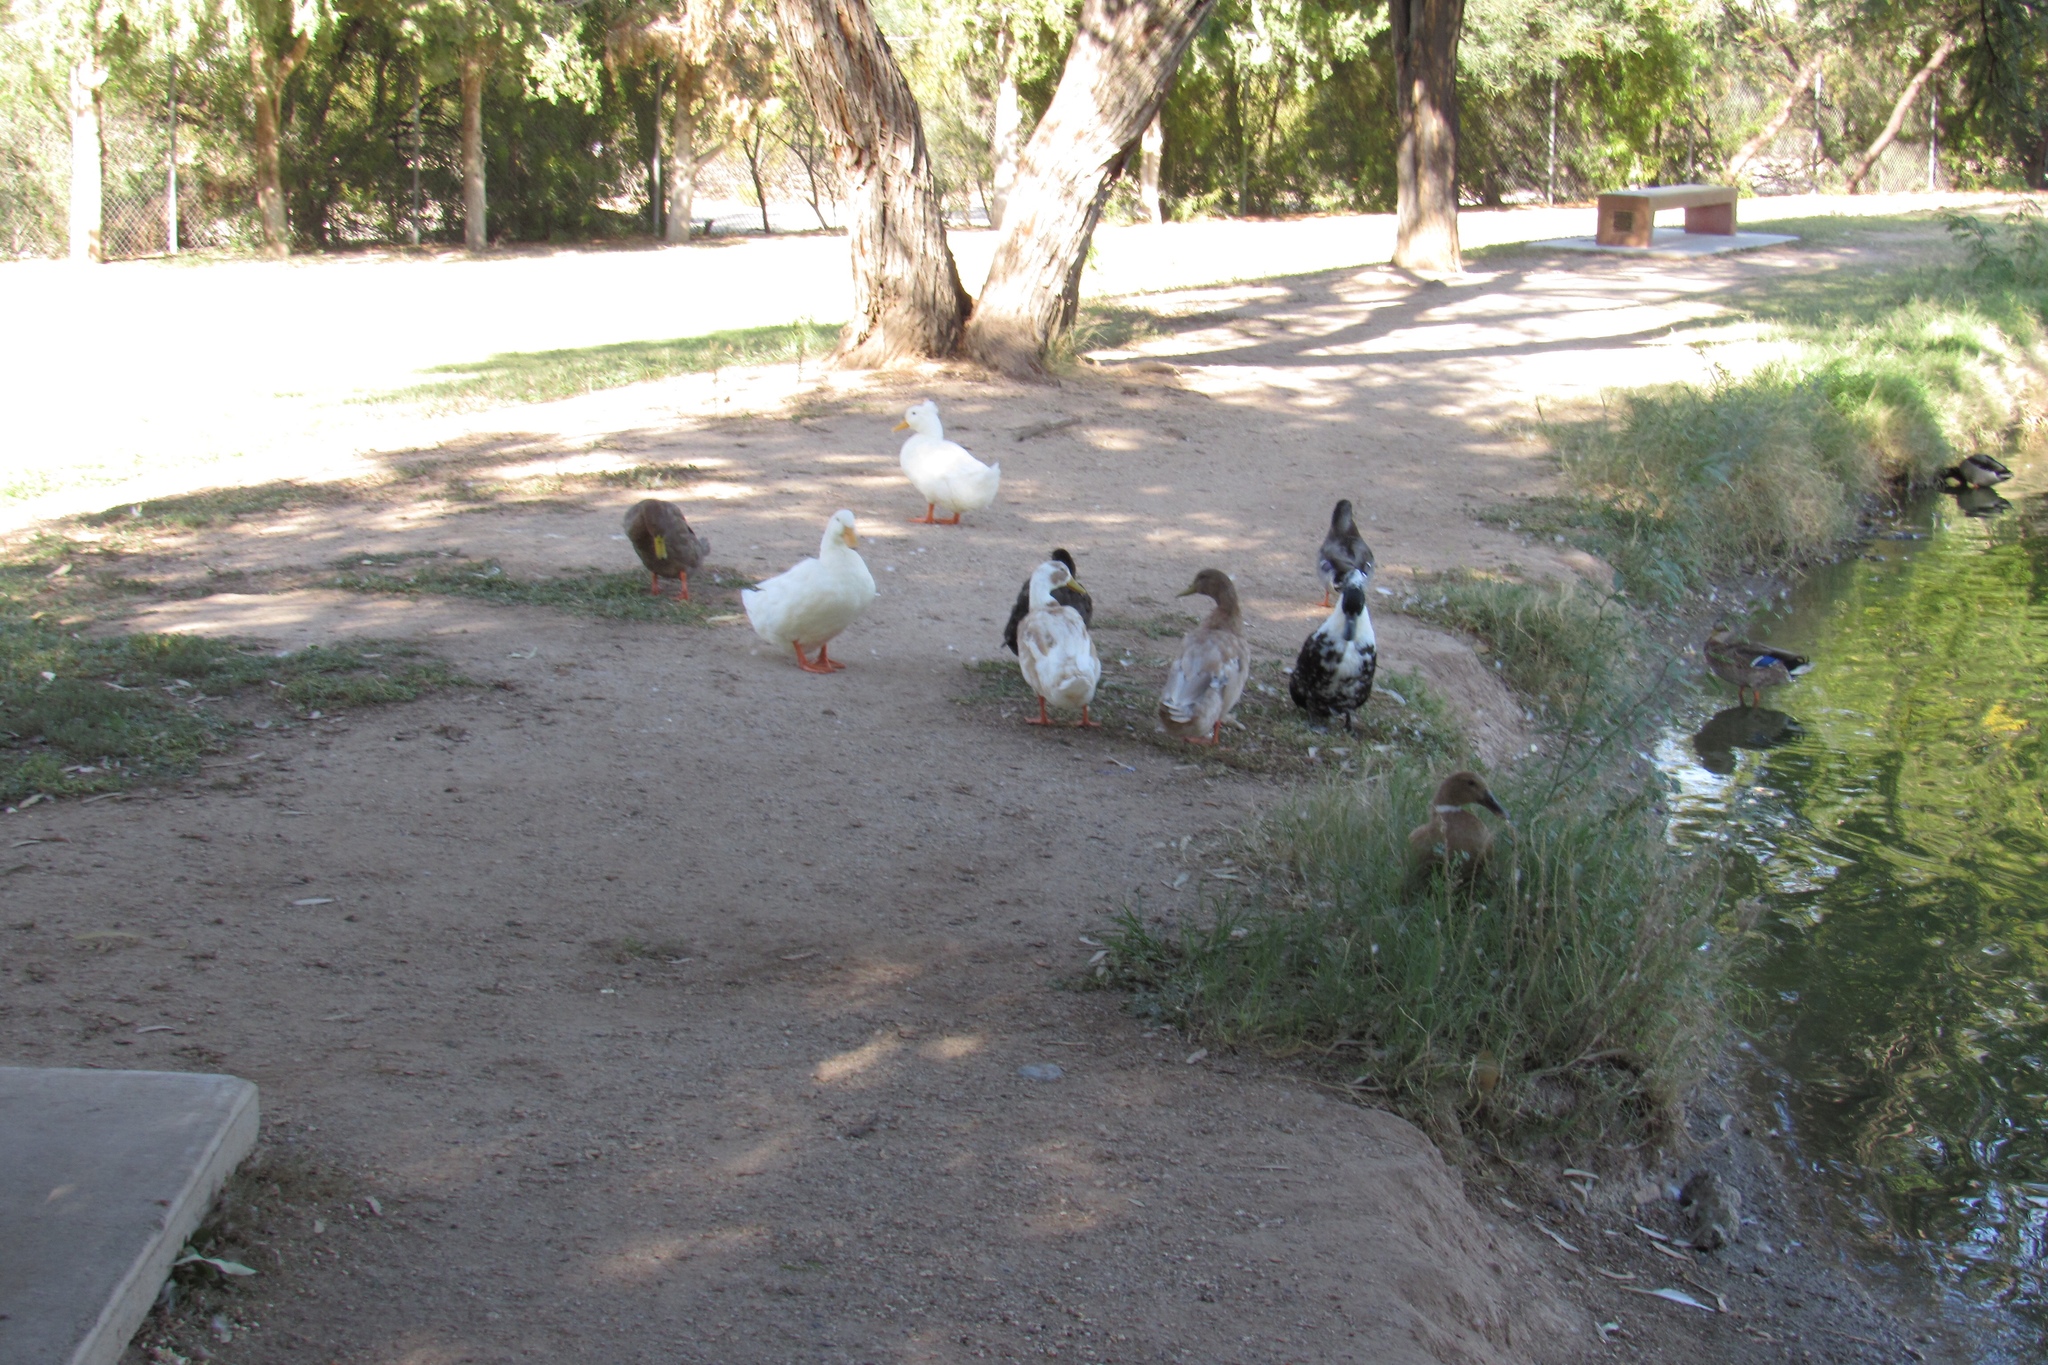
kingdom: Animalia
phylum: Chordata
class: Aves
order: Anseriformes
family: Anatidae
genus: Anas
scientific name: Anas platyrhynchos
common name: Mallard
